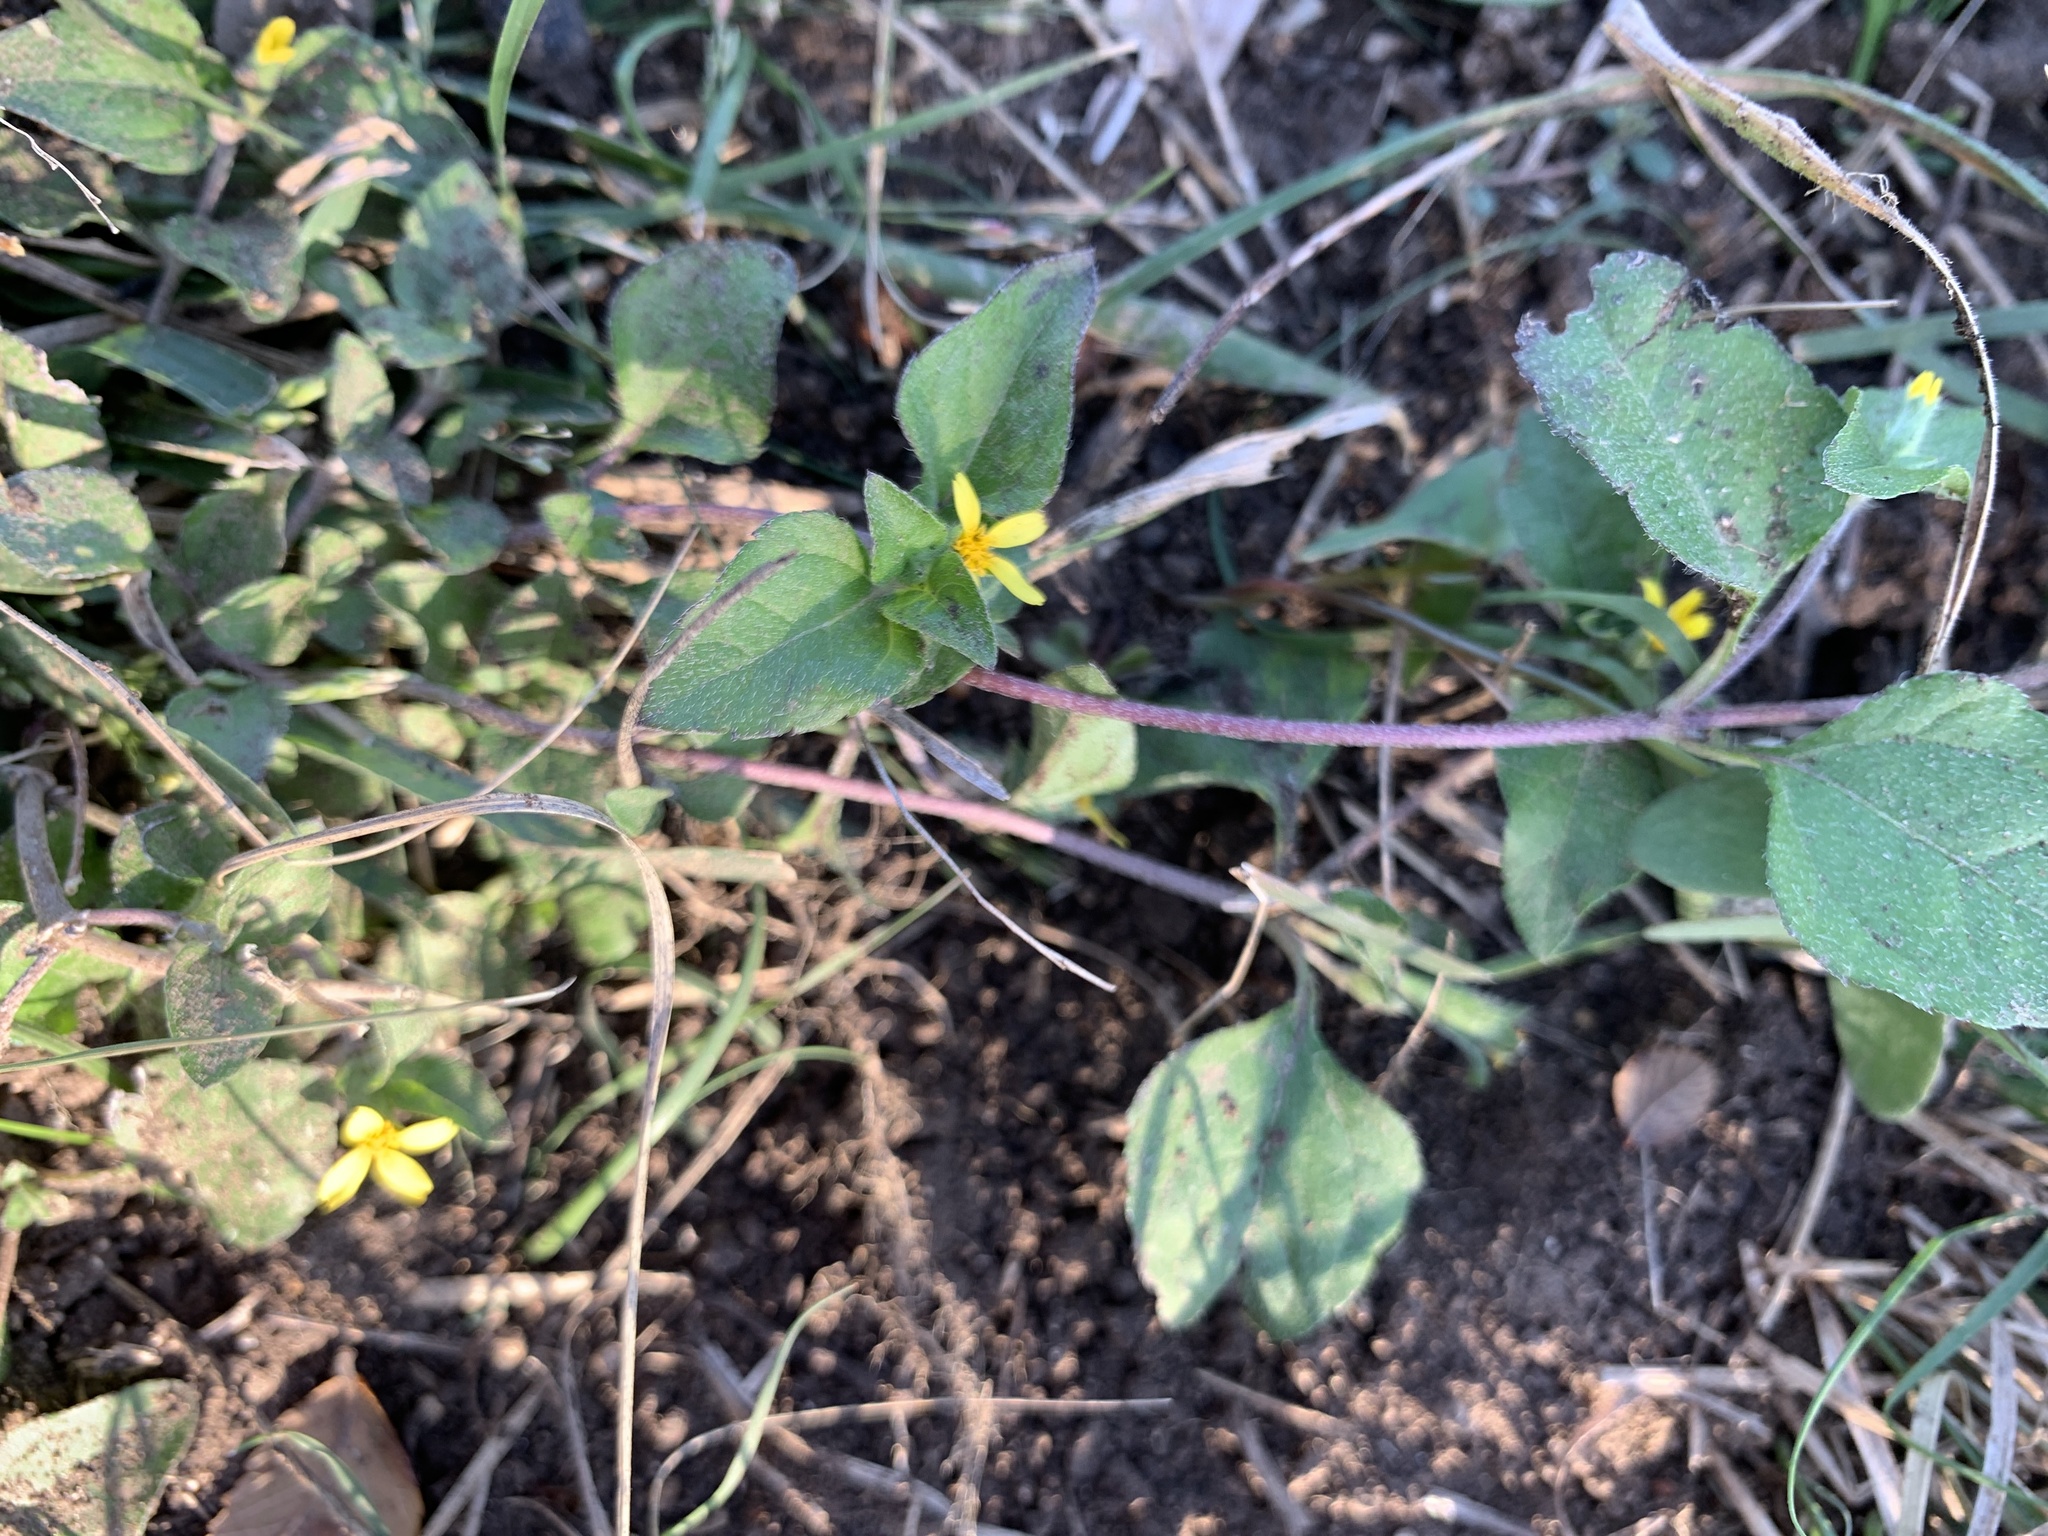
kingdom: Plantae
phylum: Tracheophyta
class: Magnoliopsida
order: Asterales
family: Asteraceae
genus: Calyptocarpus
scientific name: Calyptocarpus vialis
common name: Straggler daisy
